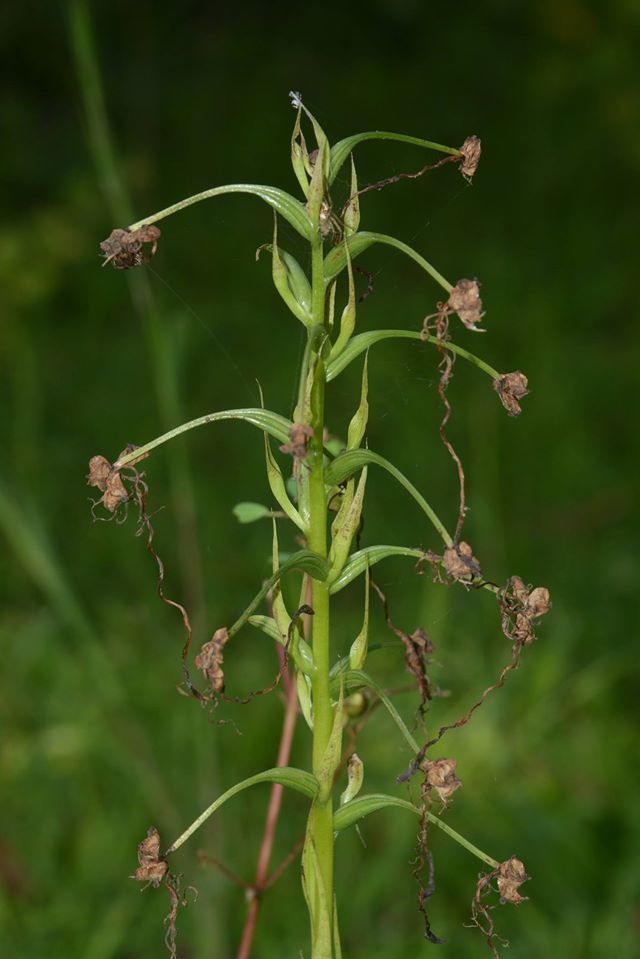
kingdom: Plantae
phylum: Tracheophyta
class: Liliopsida
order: Asparagales
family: Orchidaceae
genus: Habenaria
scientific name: Habenaria commelinifolia
